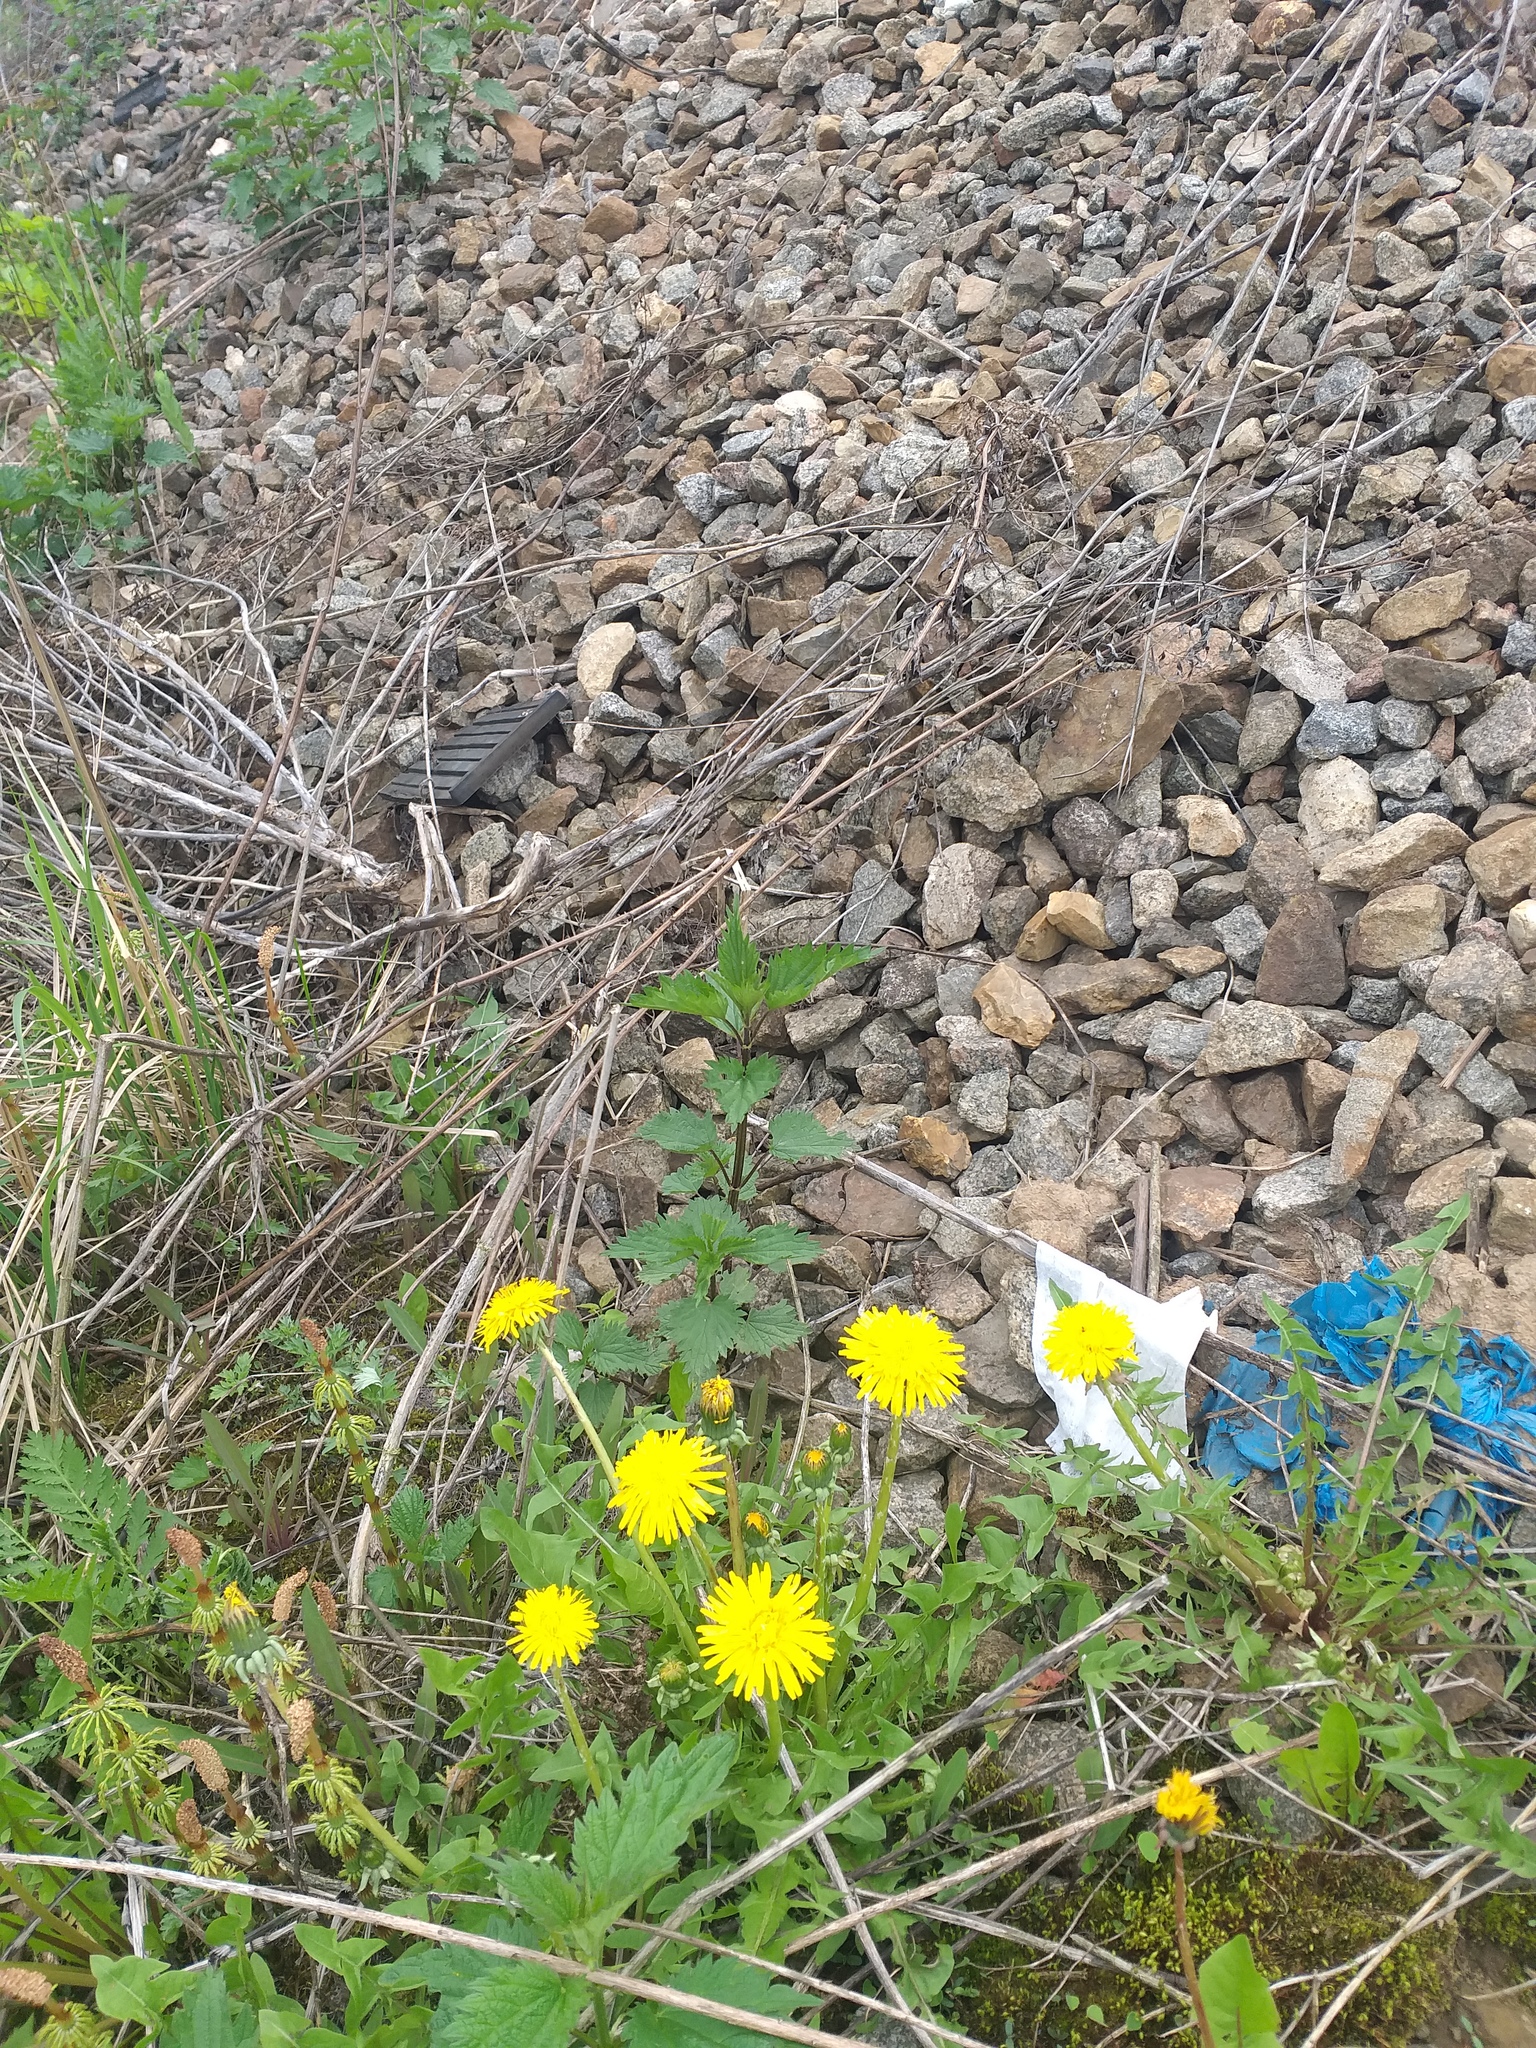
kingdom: Plantae
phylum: Tracheophyta
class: Magnoliopsida
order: Rosales
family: Urticaceae
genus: Urtica
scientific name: Urtica dioica
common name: Common nettle
